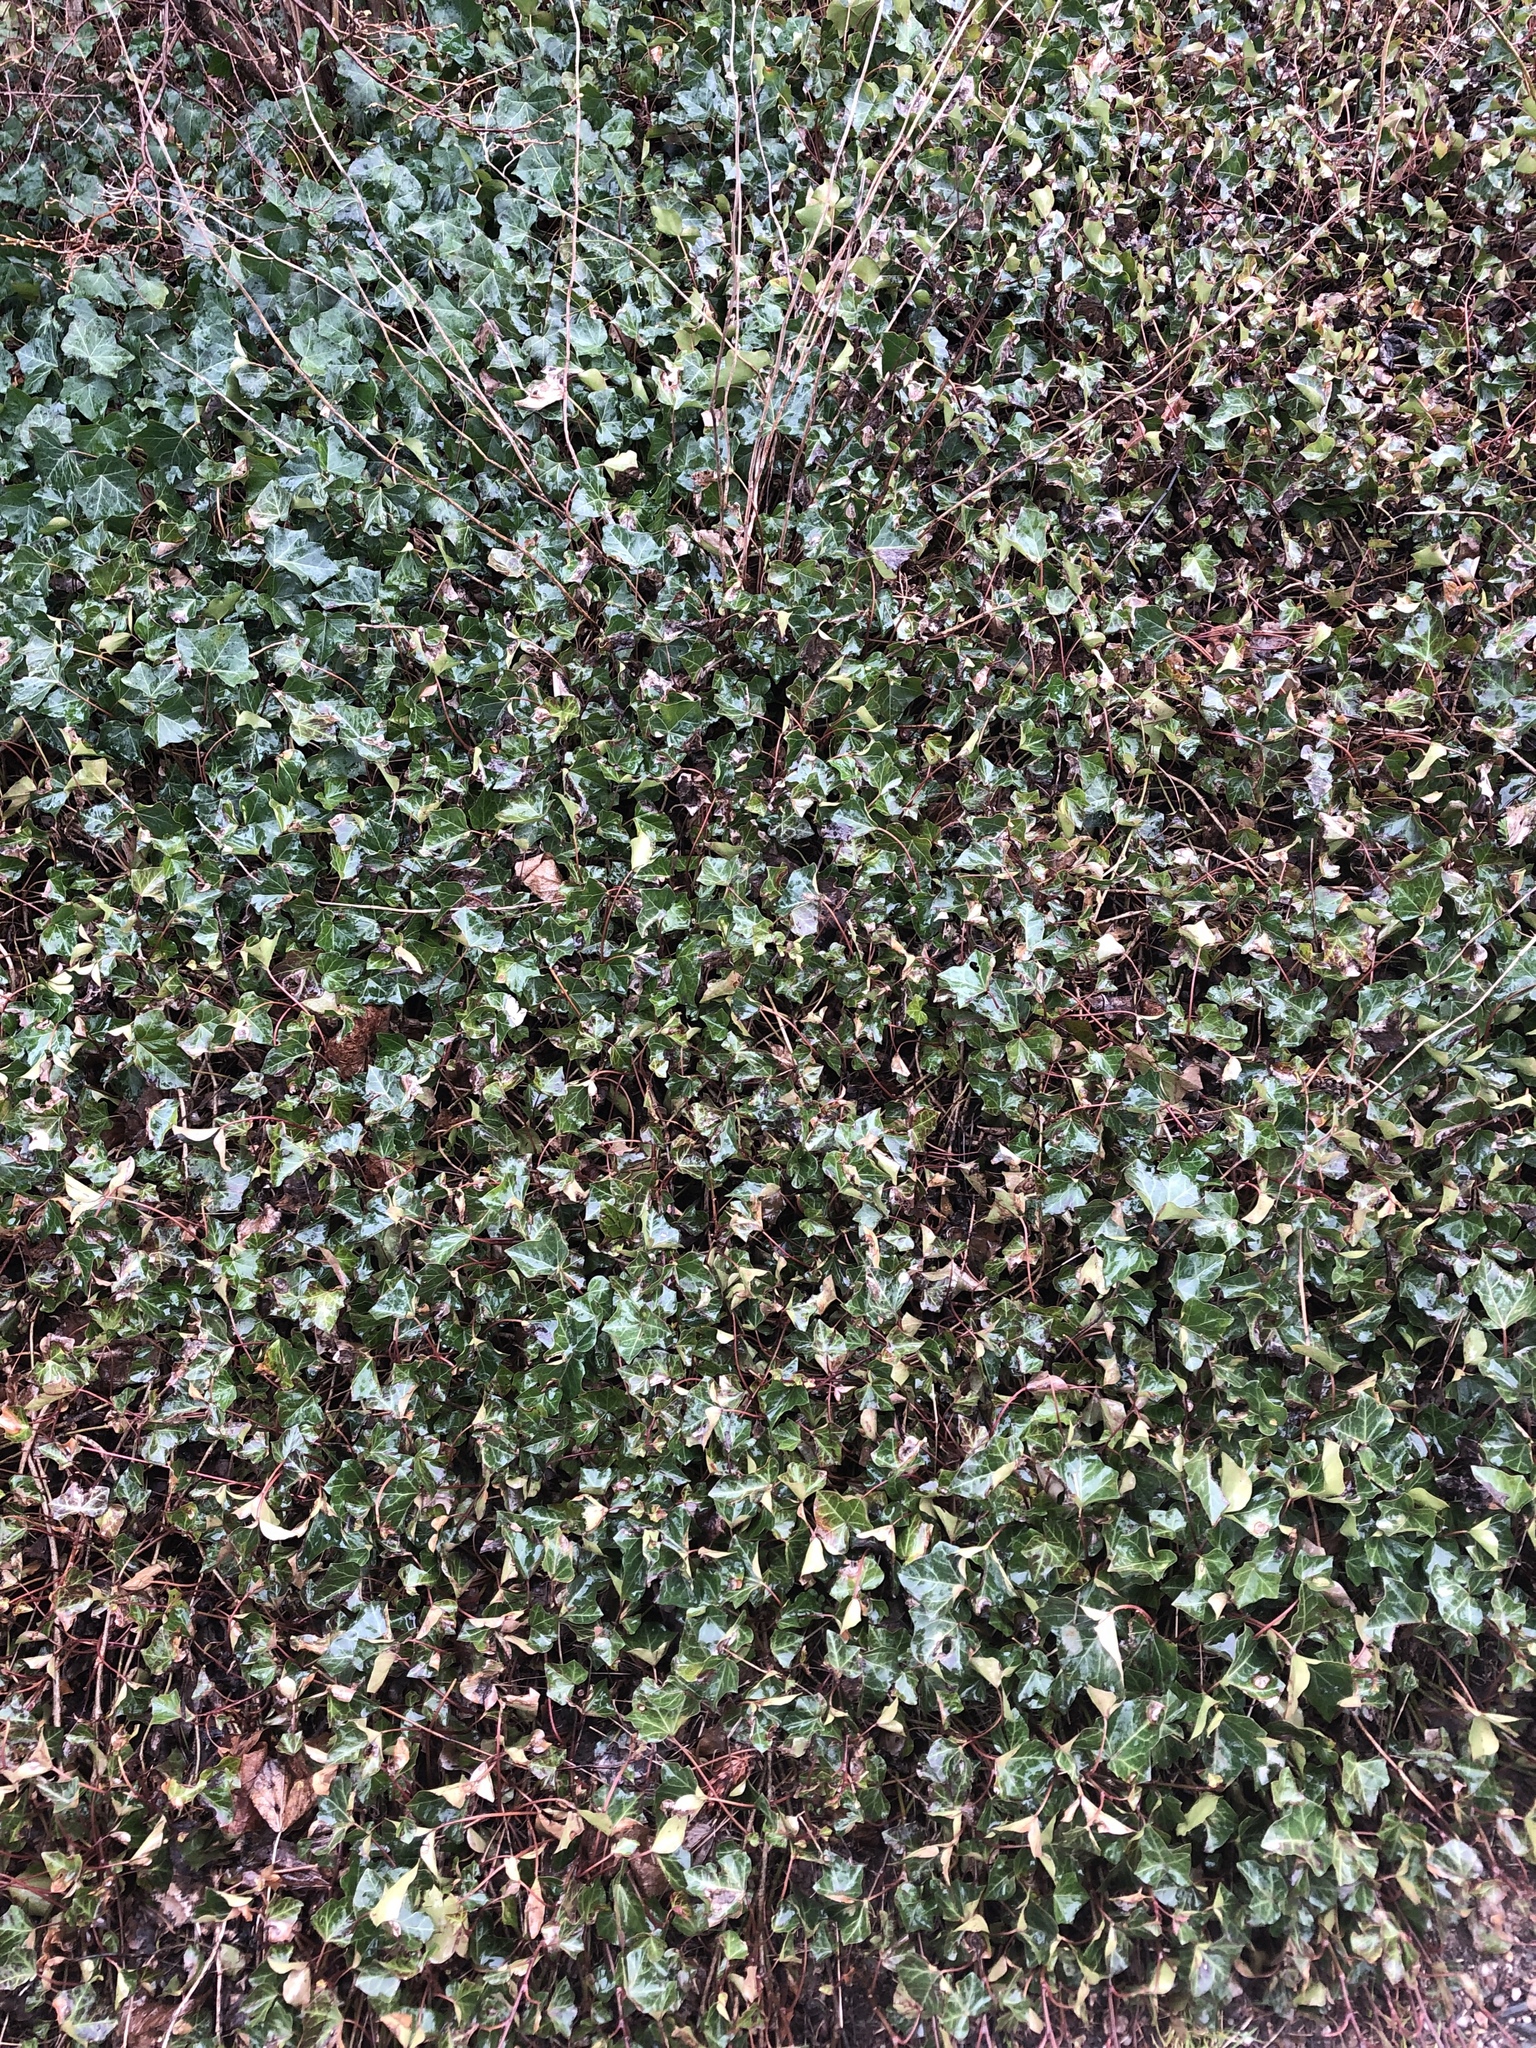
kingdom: Plantae
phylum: Tracheophyta
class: Magnoliopsida
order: Apiales
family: Araliaceae
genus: Hedera
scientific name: Hedera helix
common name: Ivy
